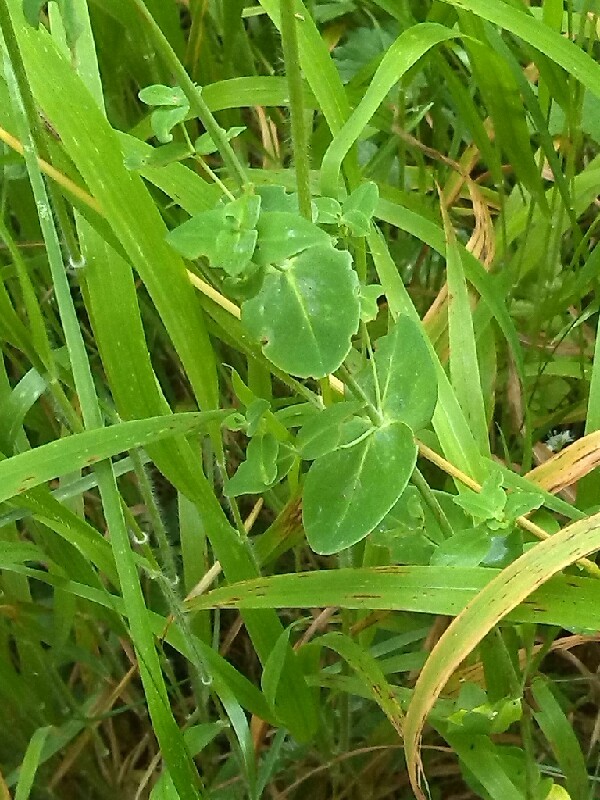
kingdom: Plantae
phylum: Tracheophyta
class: Magnoliopsida
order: Malpighiales
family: Hypericaceae
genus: Hypericum
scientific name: Hypericum pulchrum
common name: Slender st. john's-wort
